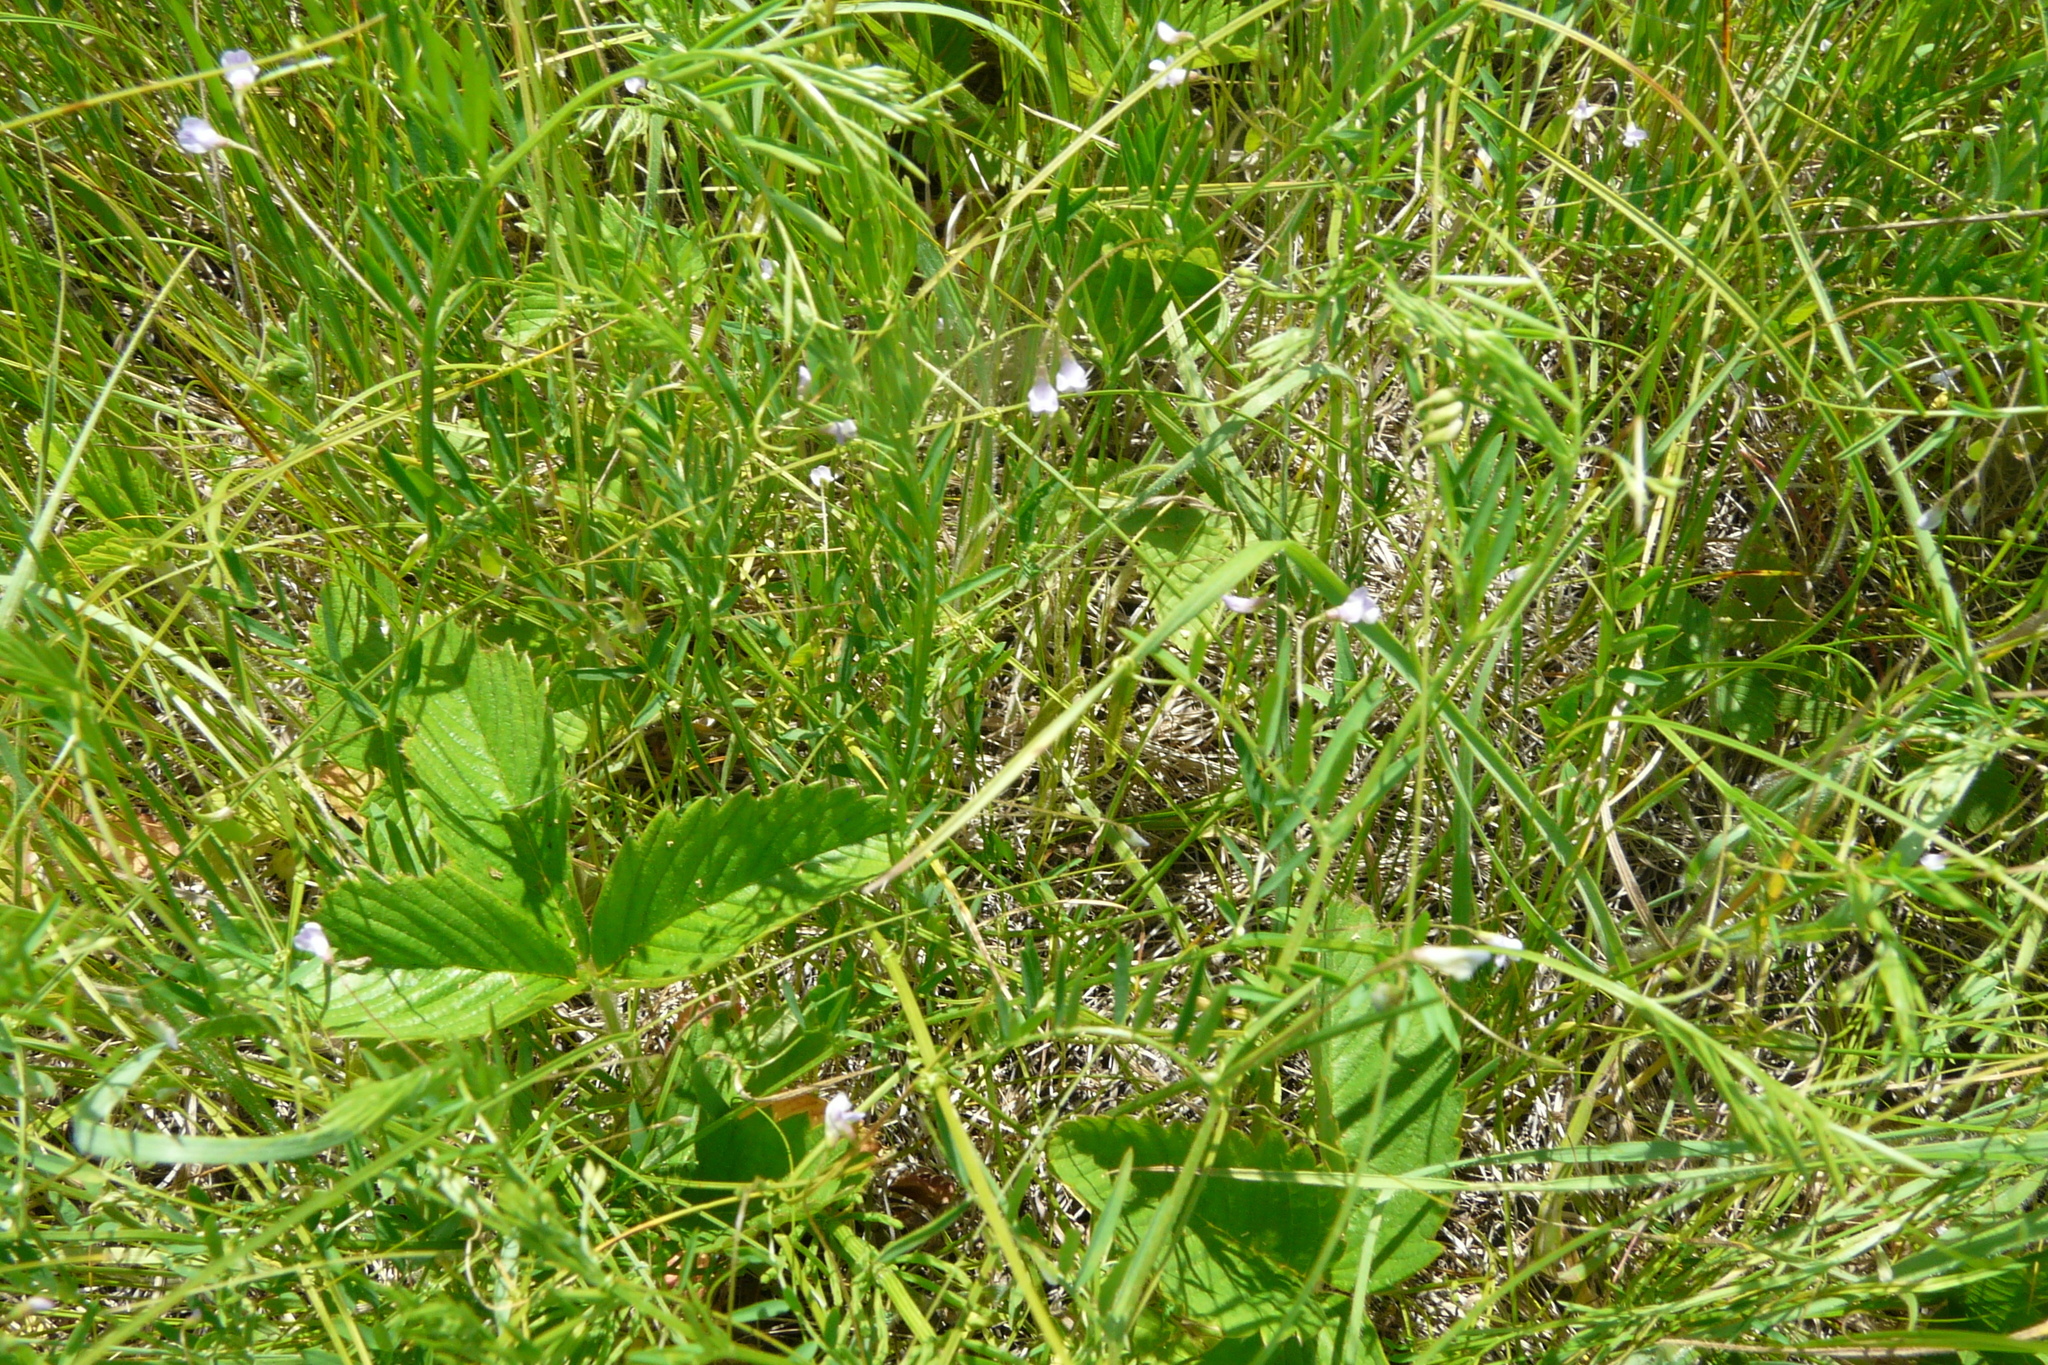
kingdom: Plantae
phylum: Tracheophyta
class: Magnoliopsida
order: Fabales
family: Fabaceae
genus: Vicia
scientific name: Vicia tetrasperma
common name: Smooth tare
